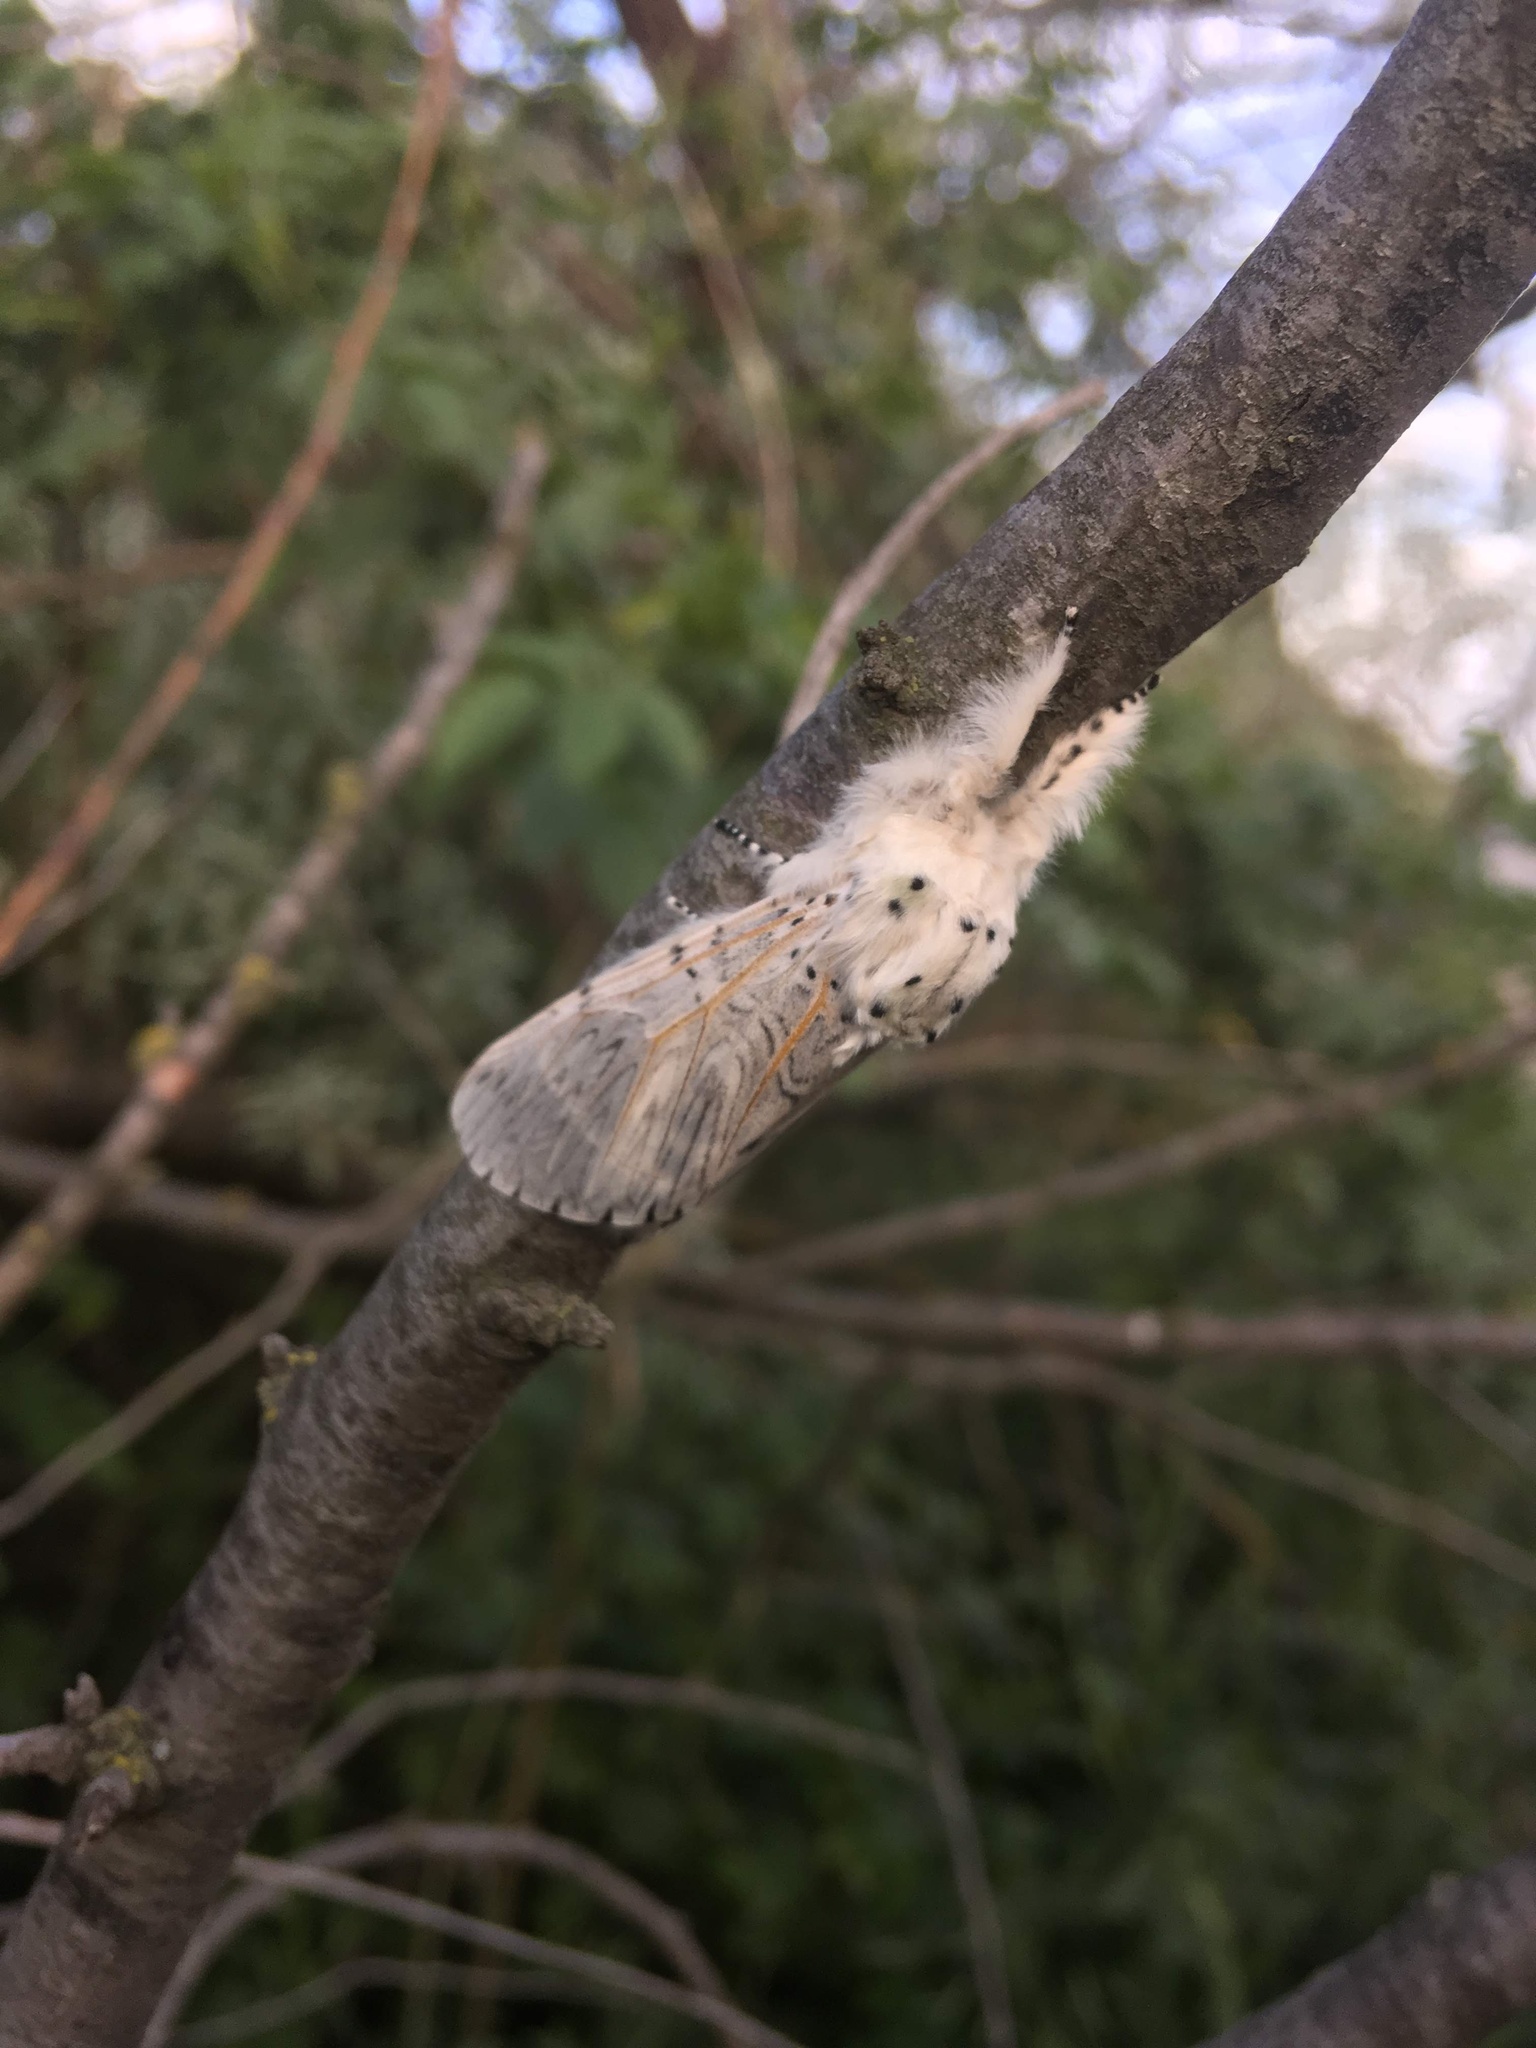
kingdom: Animalia
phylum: Arthropoda
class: Insecta
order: Lepidoptera
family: Notodontidae
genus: Cerura
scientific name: Cerura vinula
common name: Puss moth
